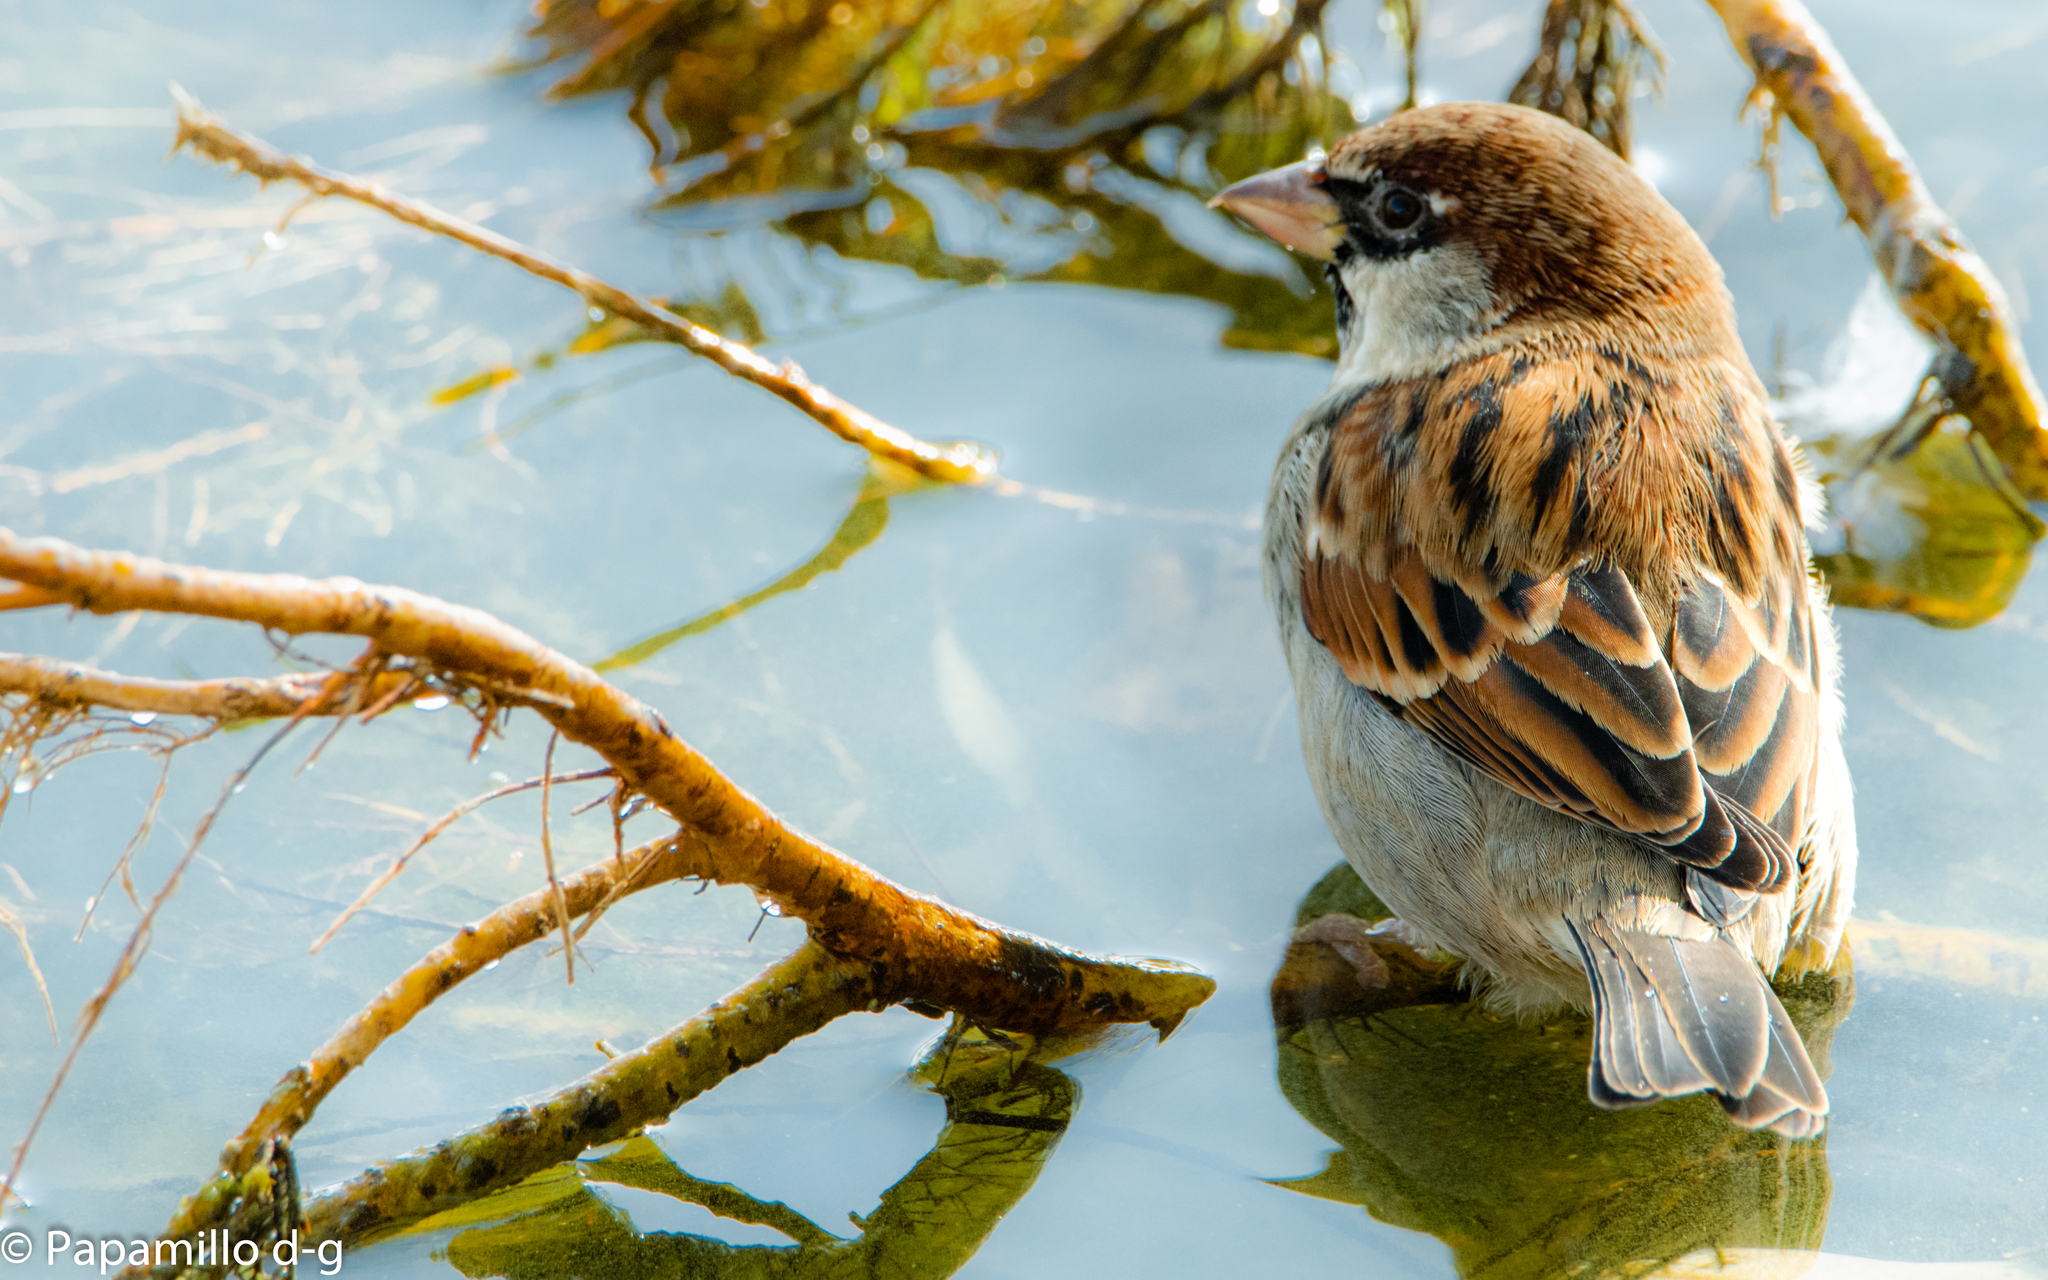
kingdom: Animalia
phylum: Chordata
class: Aves
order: Passeriformes
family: Passeridae
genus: Passer
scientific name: Passer italiae
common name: Italian sparrow
